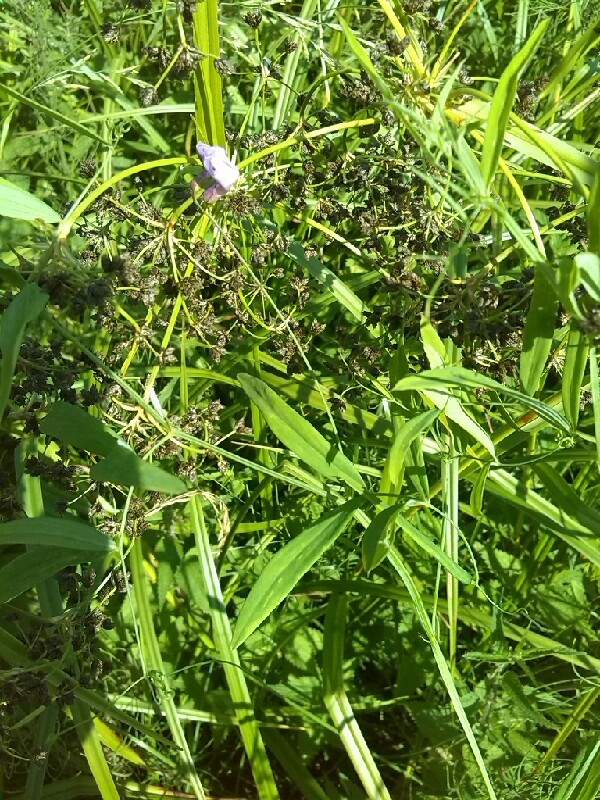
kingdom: Plantae
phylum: Tracheophyta
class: Magnoliopsida
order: Fabales
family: Fabaceae
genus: Lathyrus
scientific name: Lathyrus palustris
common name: Marsh pea
